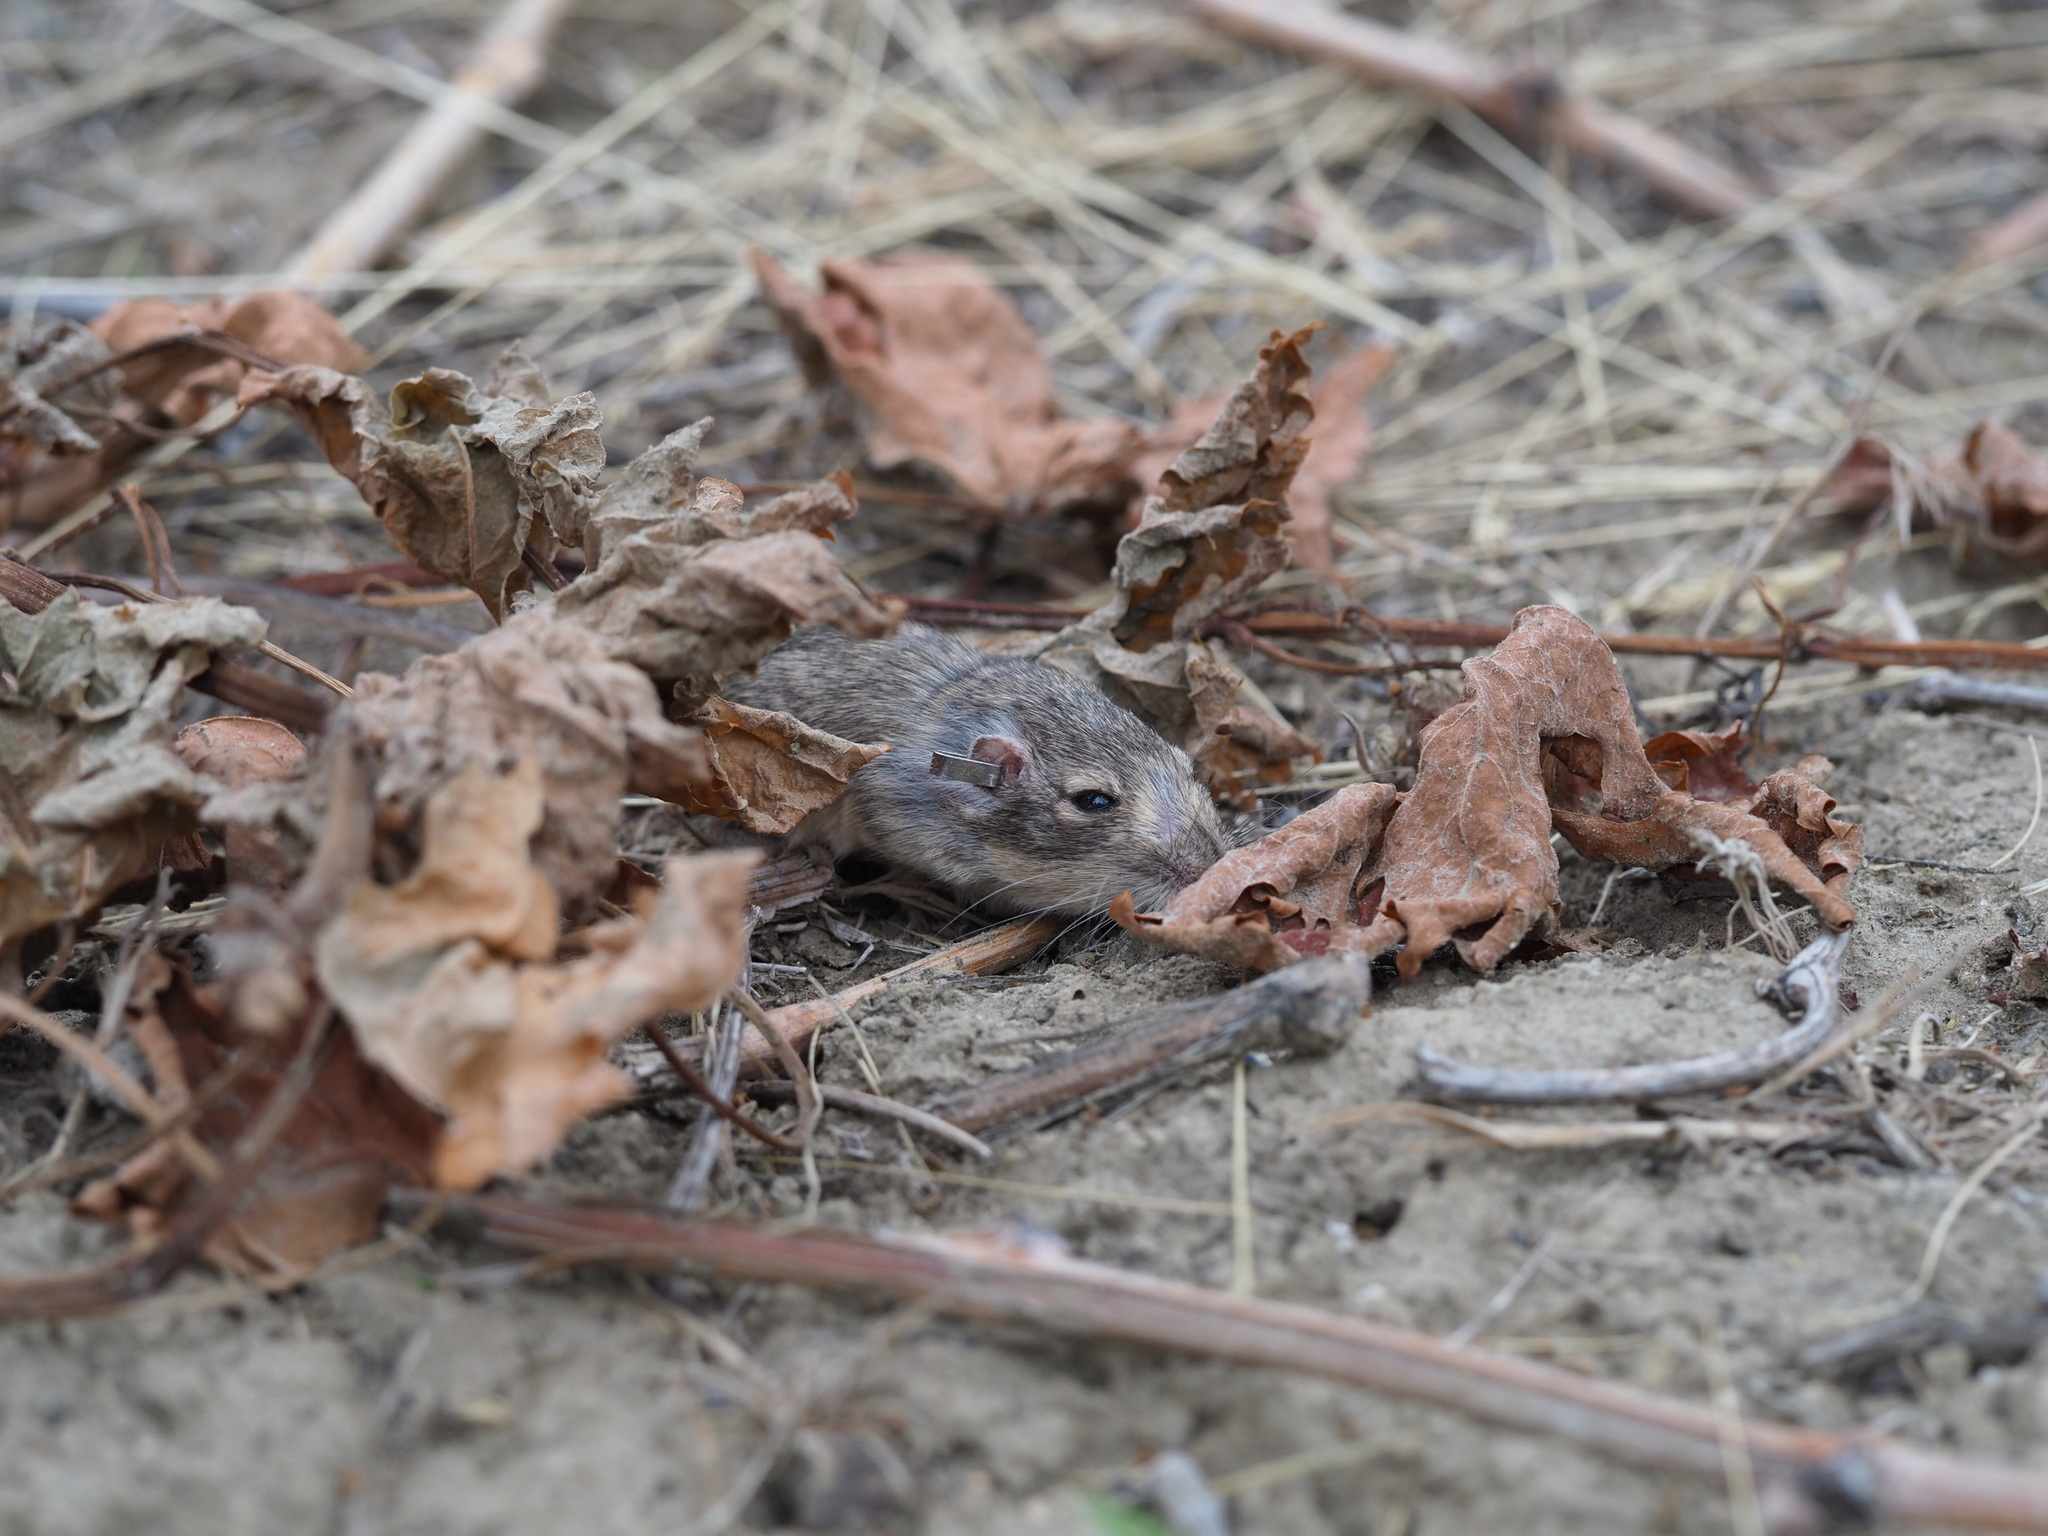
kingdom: Animalia
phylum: Chordata
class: Mammalia
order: Rodentia
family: Heteromyidae
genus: Perognathus
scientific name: Perognathus parvus
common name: Great basin pocket mouse
